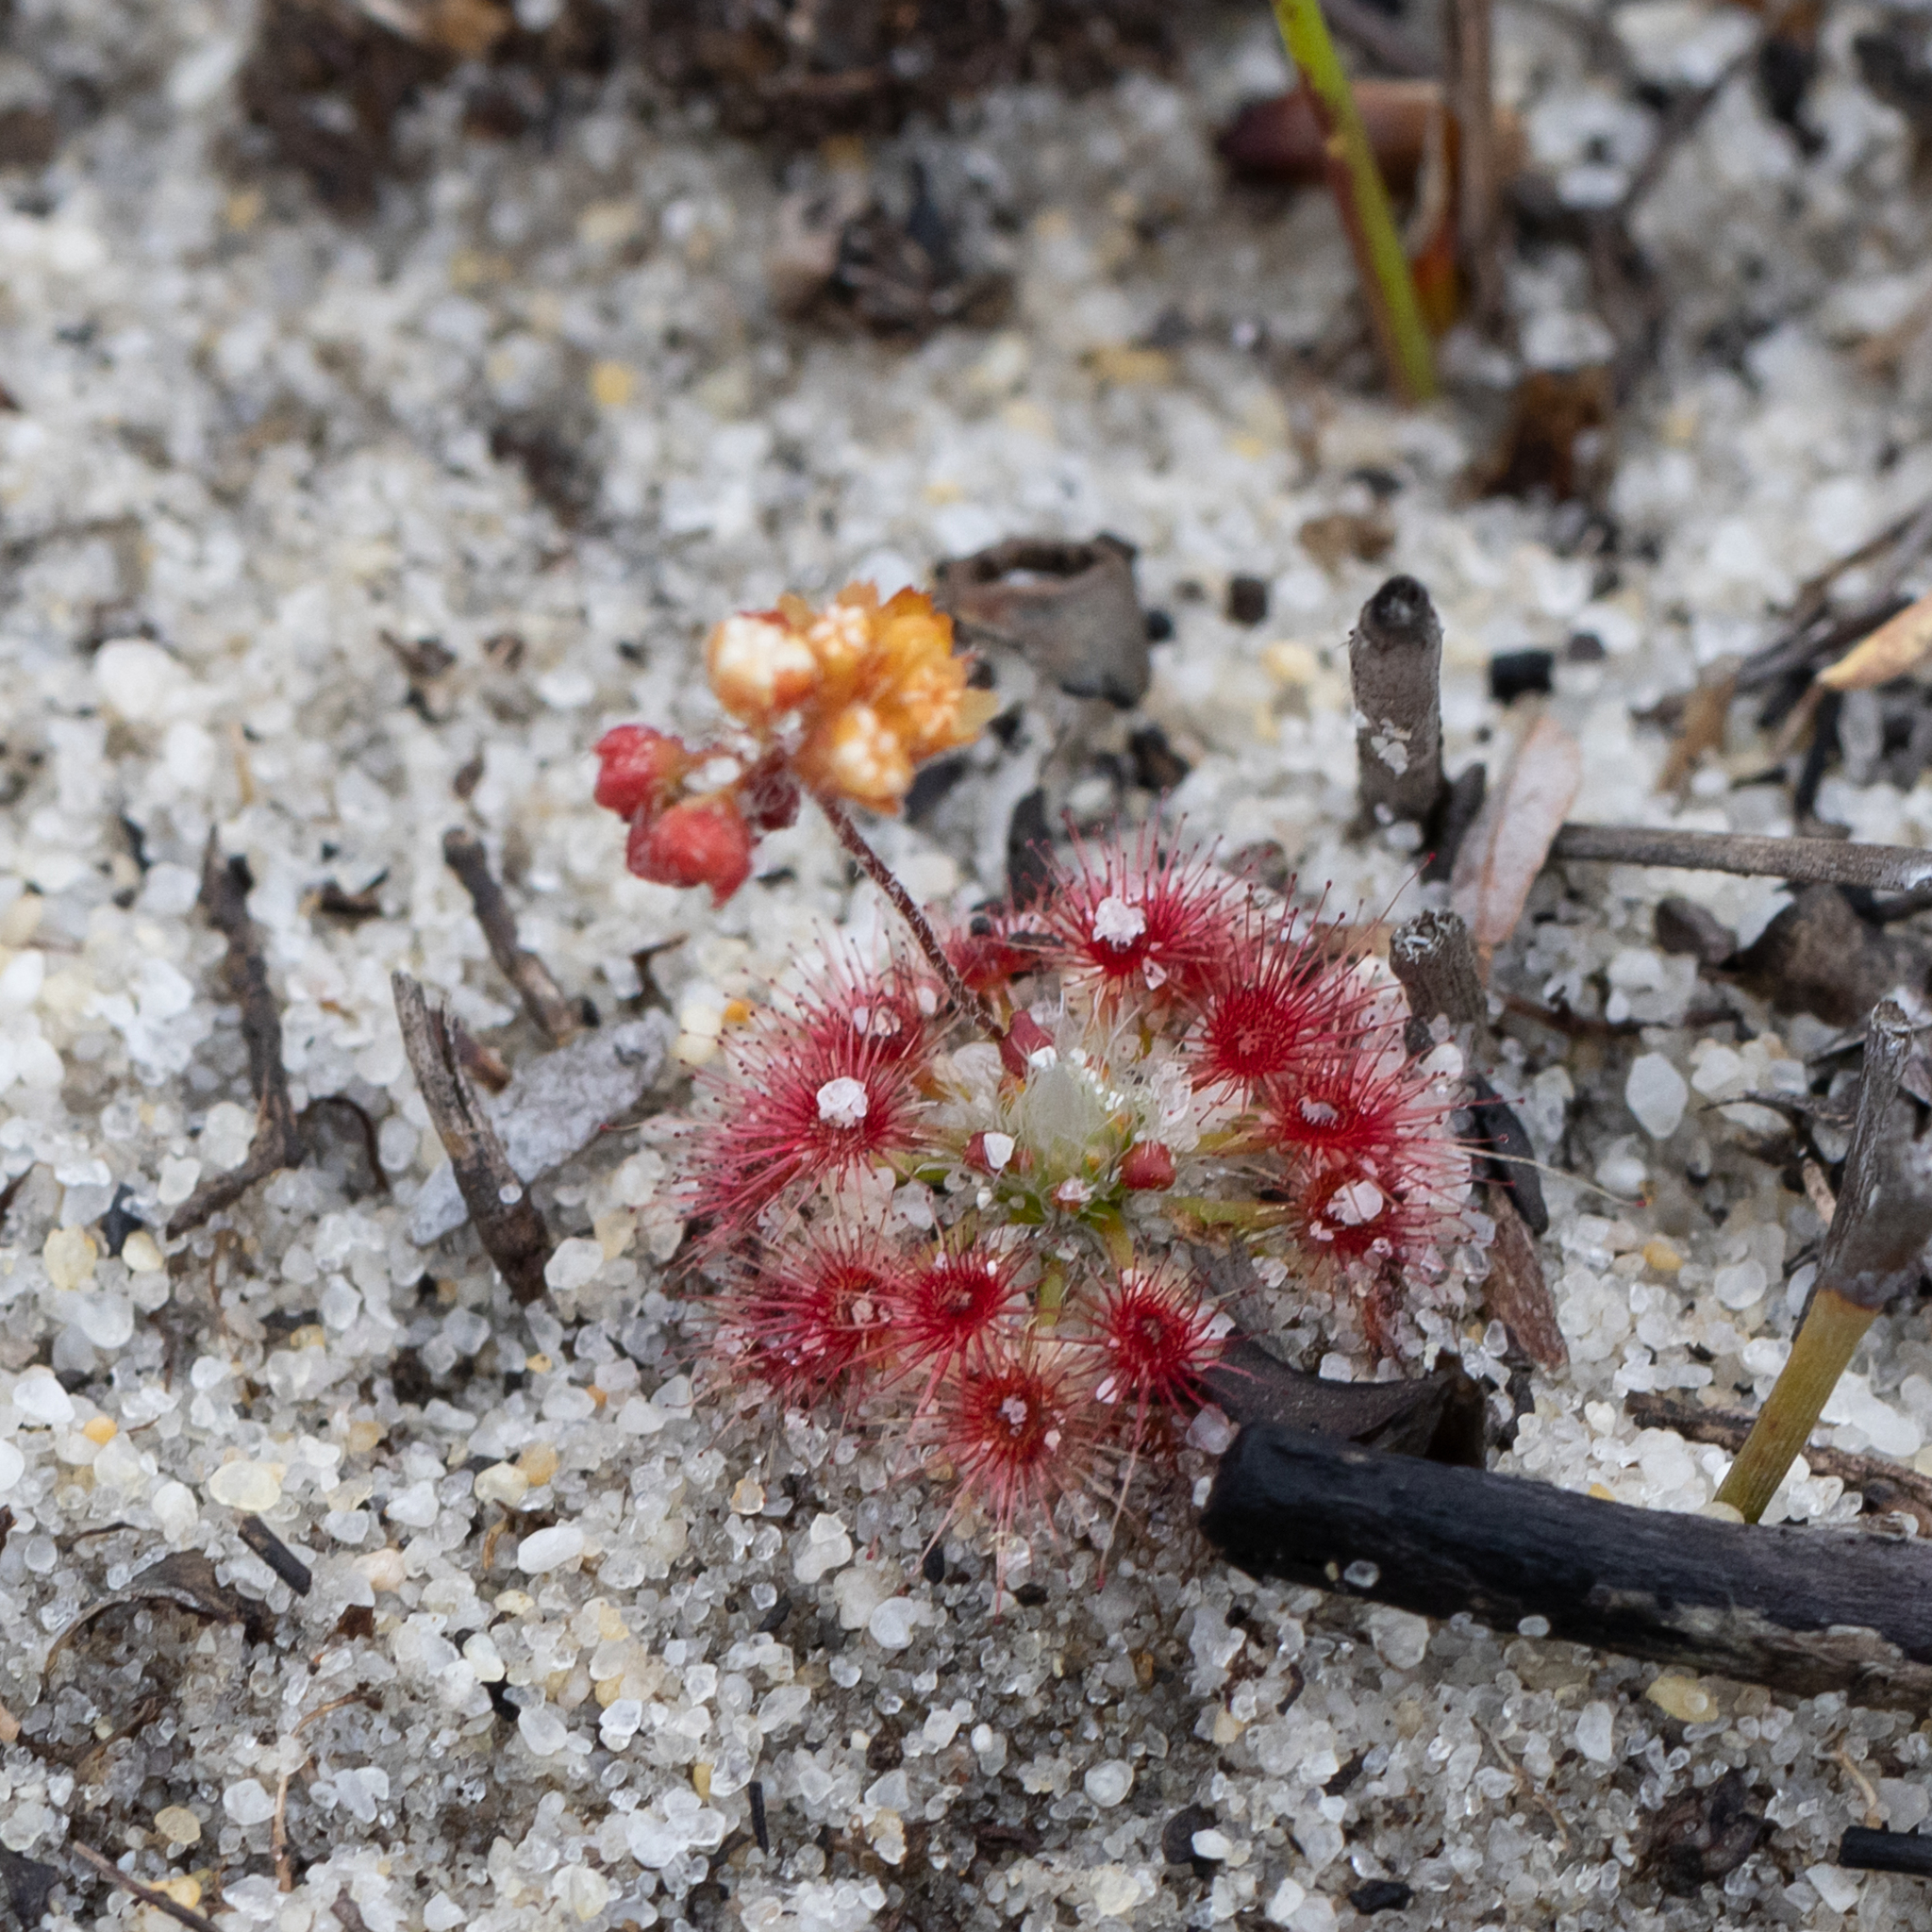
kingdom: Plantae
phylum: Tracheophyta
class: Magnoliopsida
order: Caryophyllales
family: Droseraceae
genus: Drosera
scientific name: Drosera paleacea
